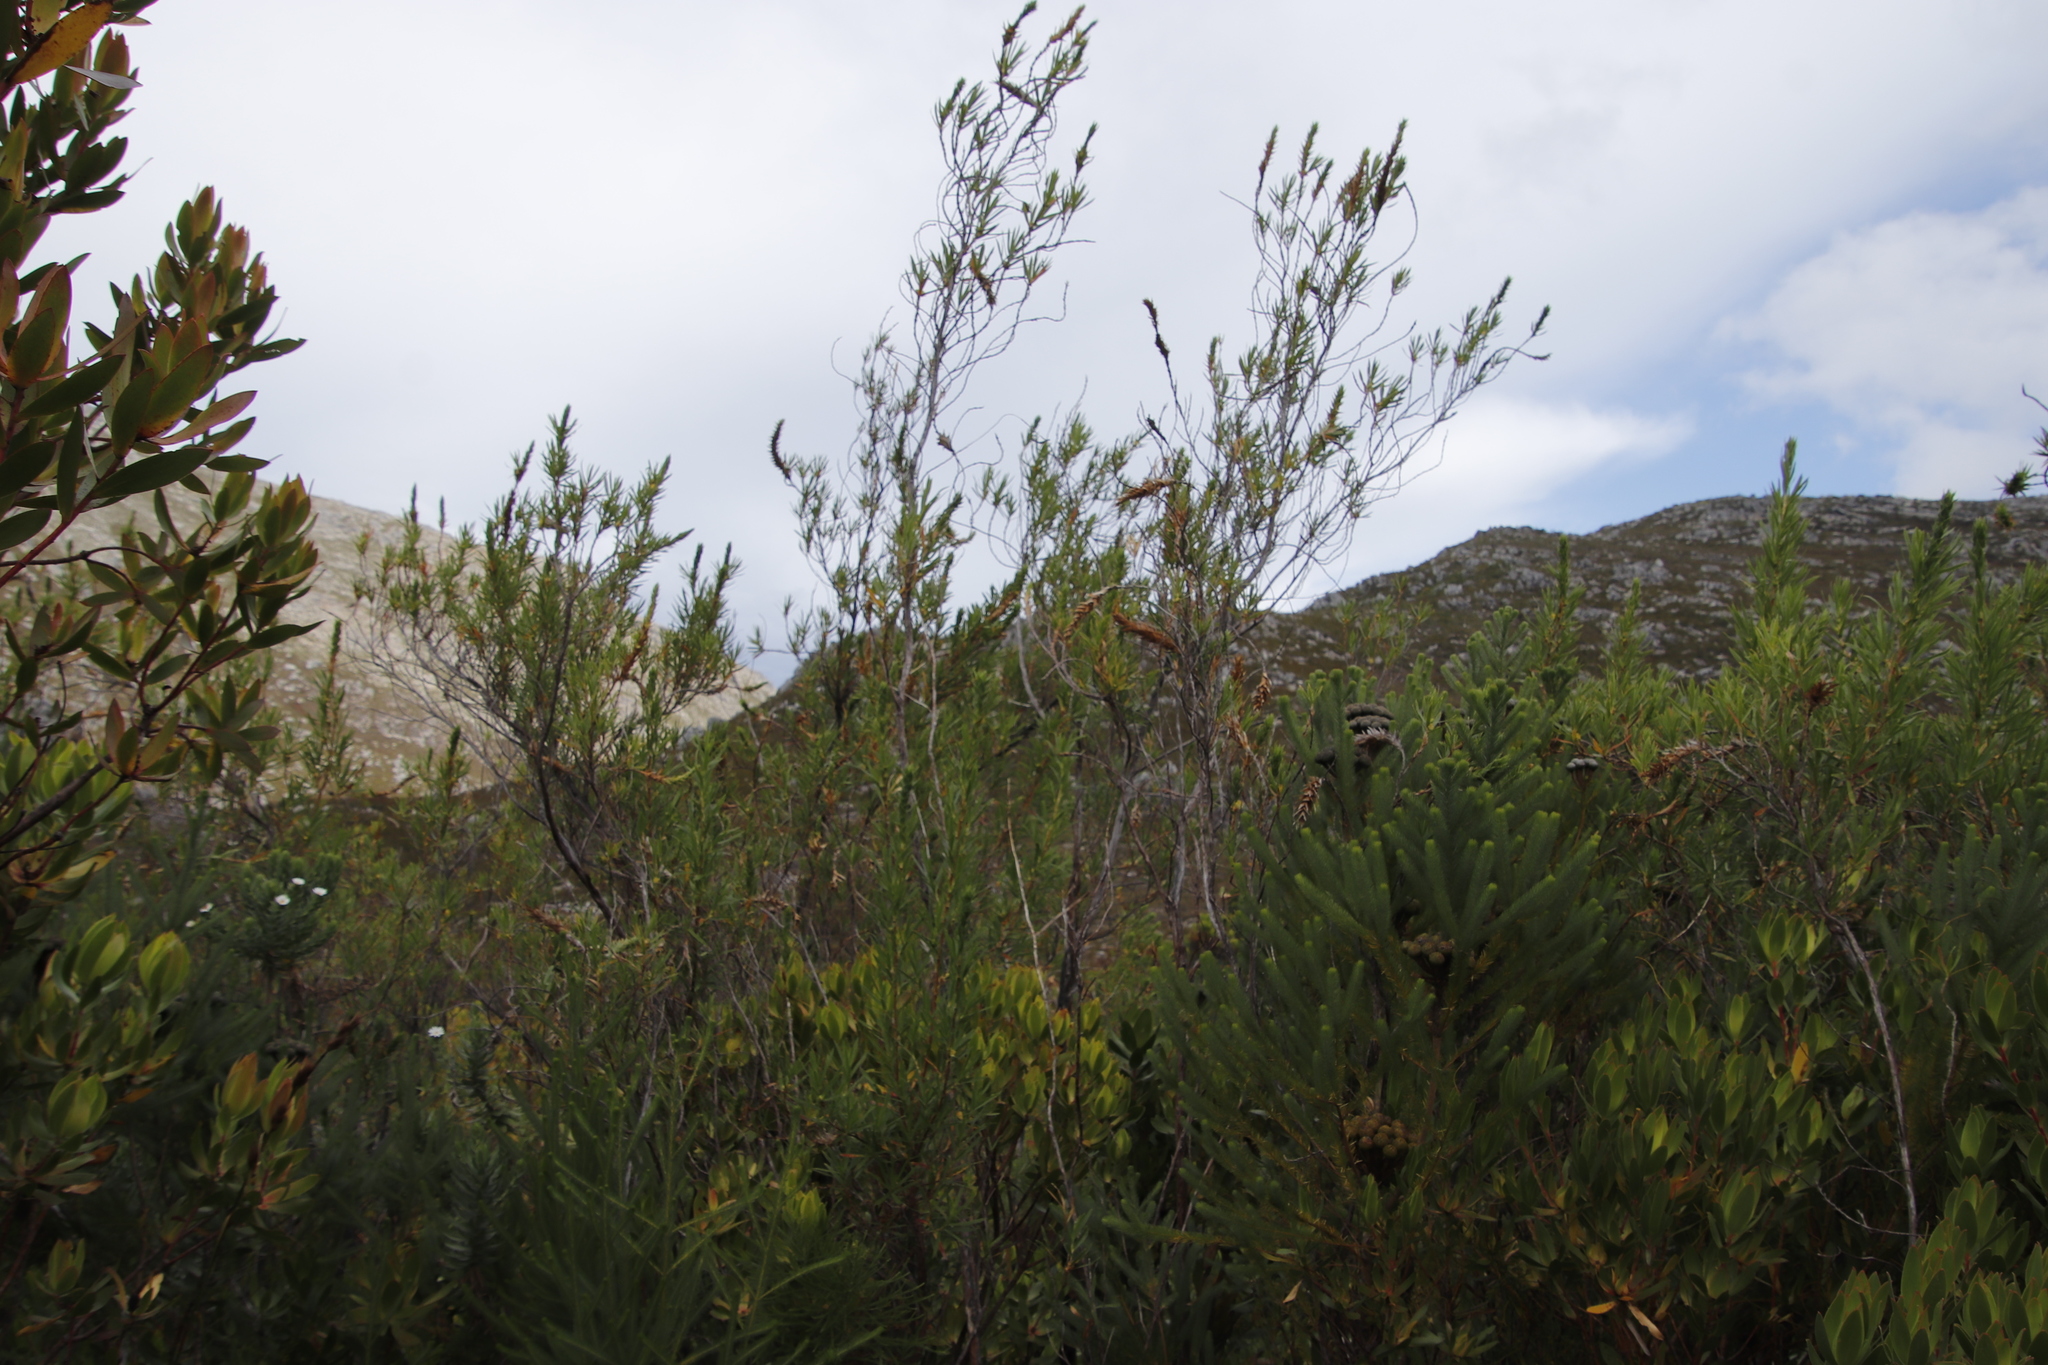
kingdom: Plantae
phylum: Tracheophyta
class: Magnoliopsida
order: Rosales
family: Rosaceae
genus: Cliffortia
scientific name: Cliffortia heterophylla
